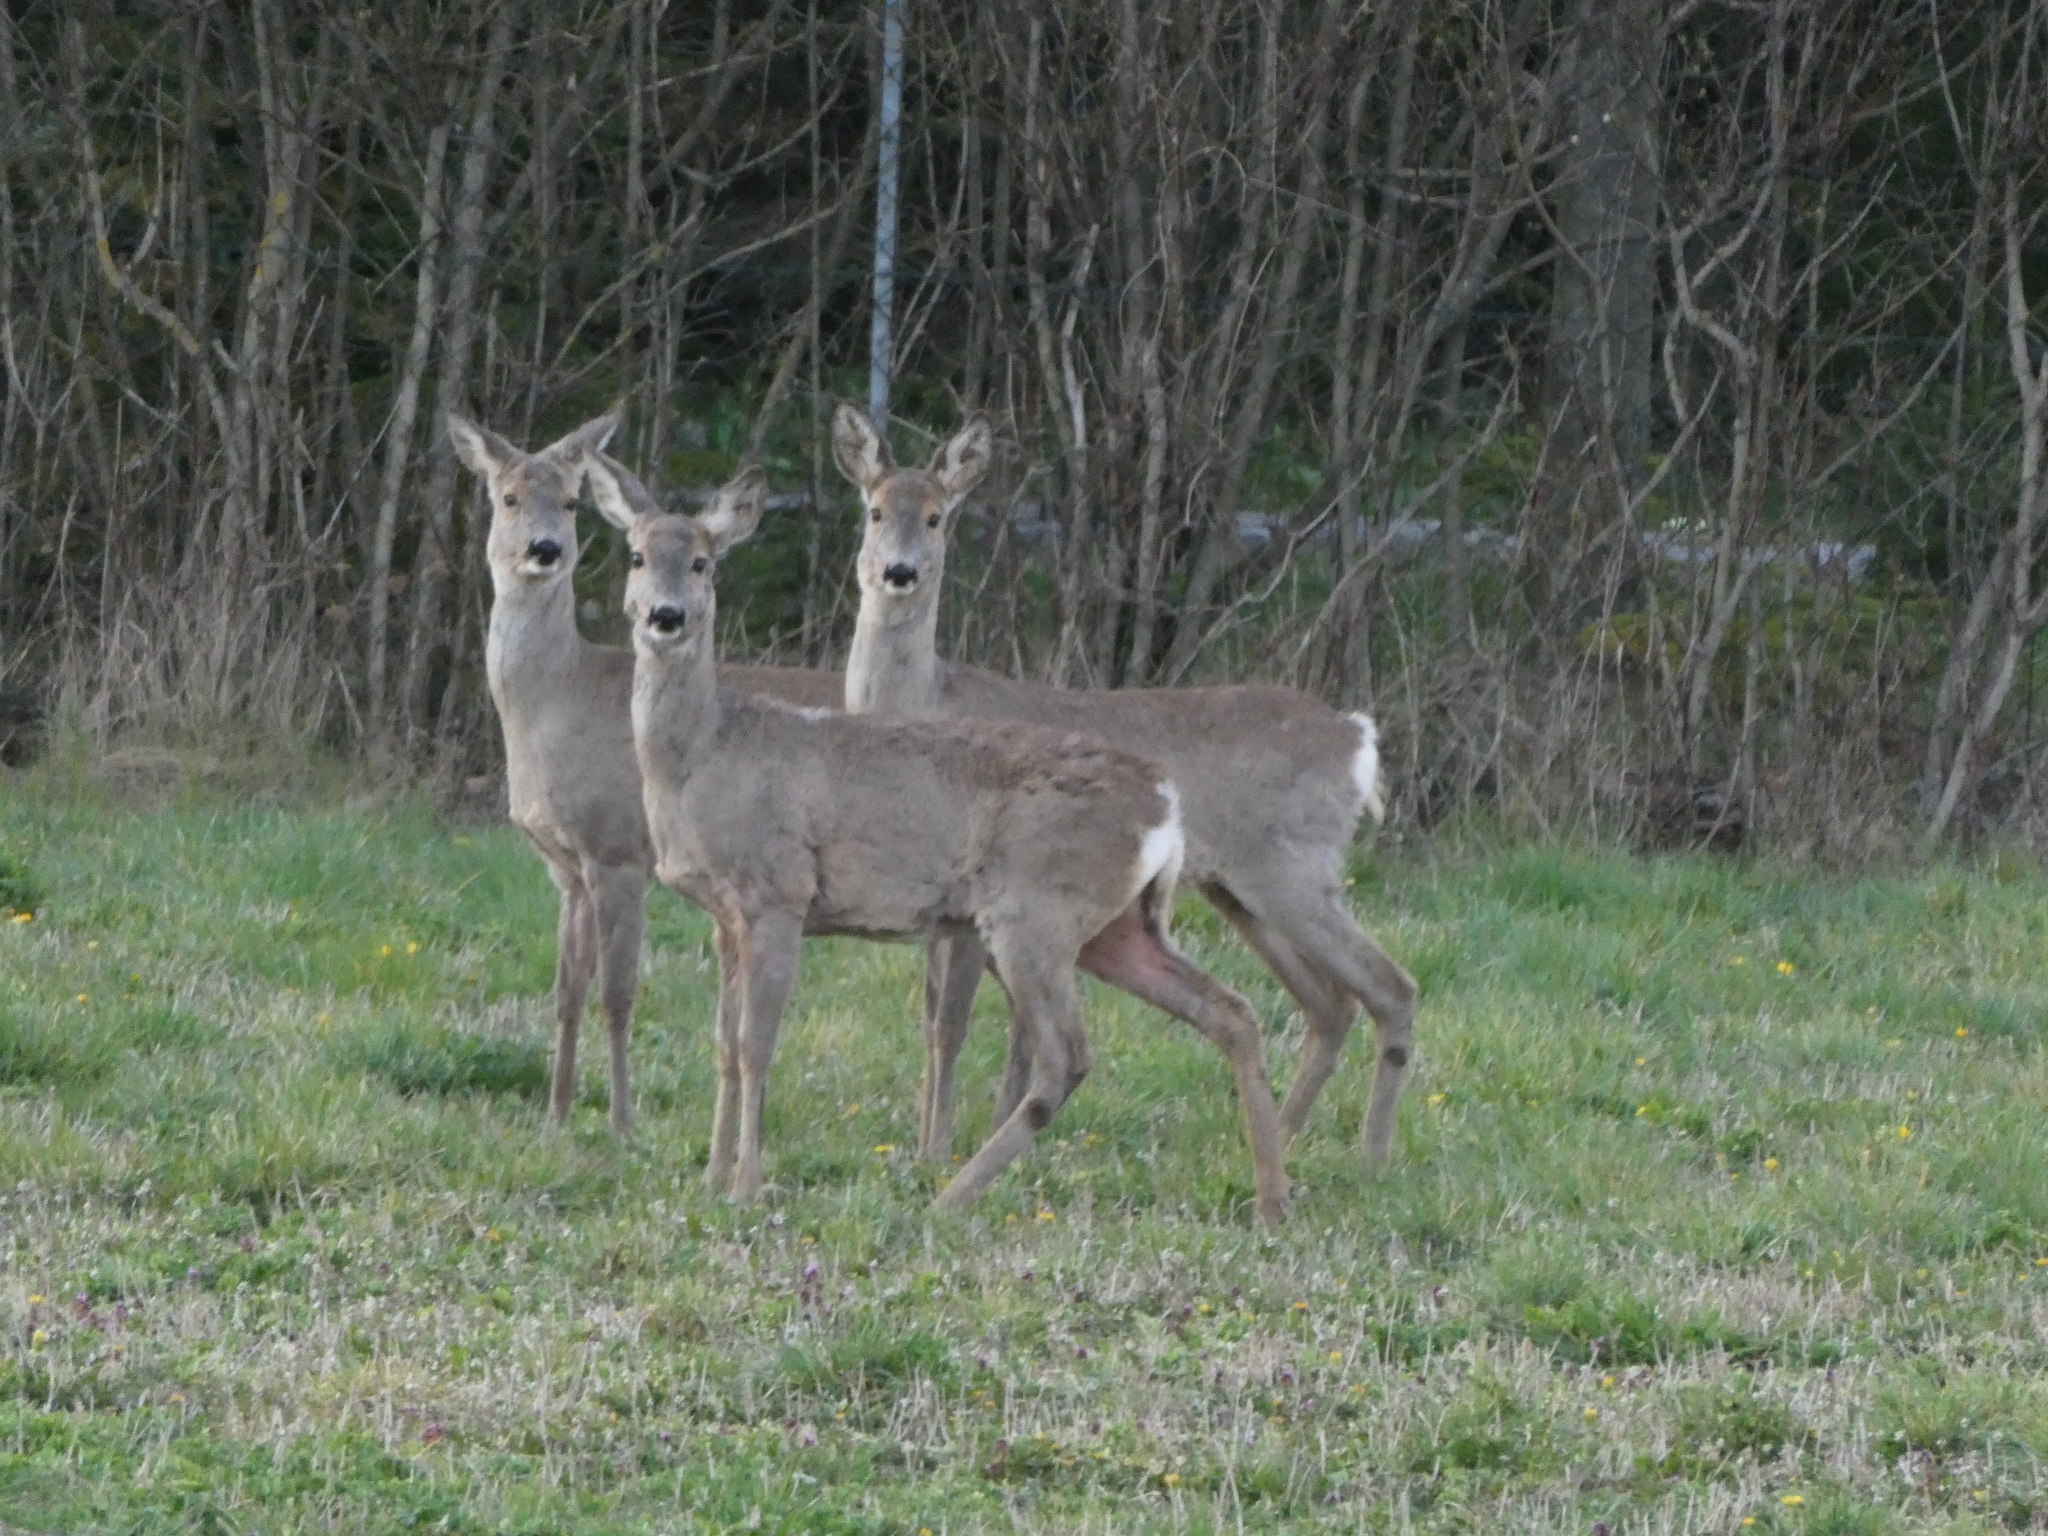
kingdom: Animalia
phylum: Chordata
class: Mammalia
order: Artiodactyla
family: Cervidae
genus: Capreolus
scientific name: Capreolus capreolus
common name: Western roe deer
